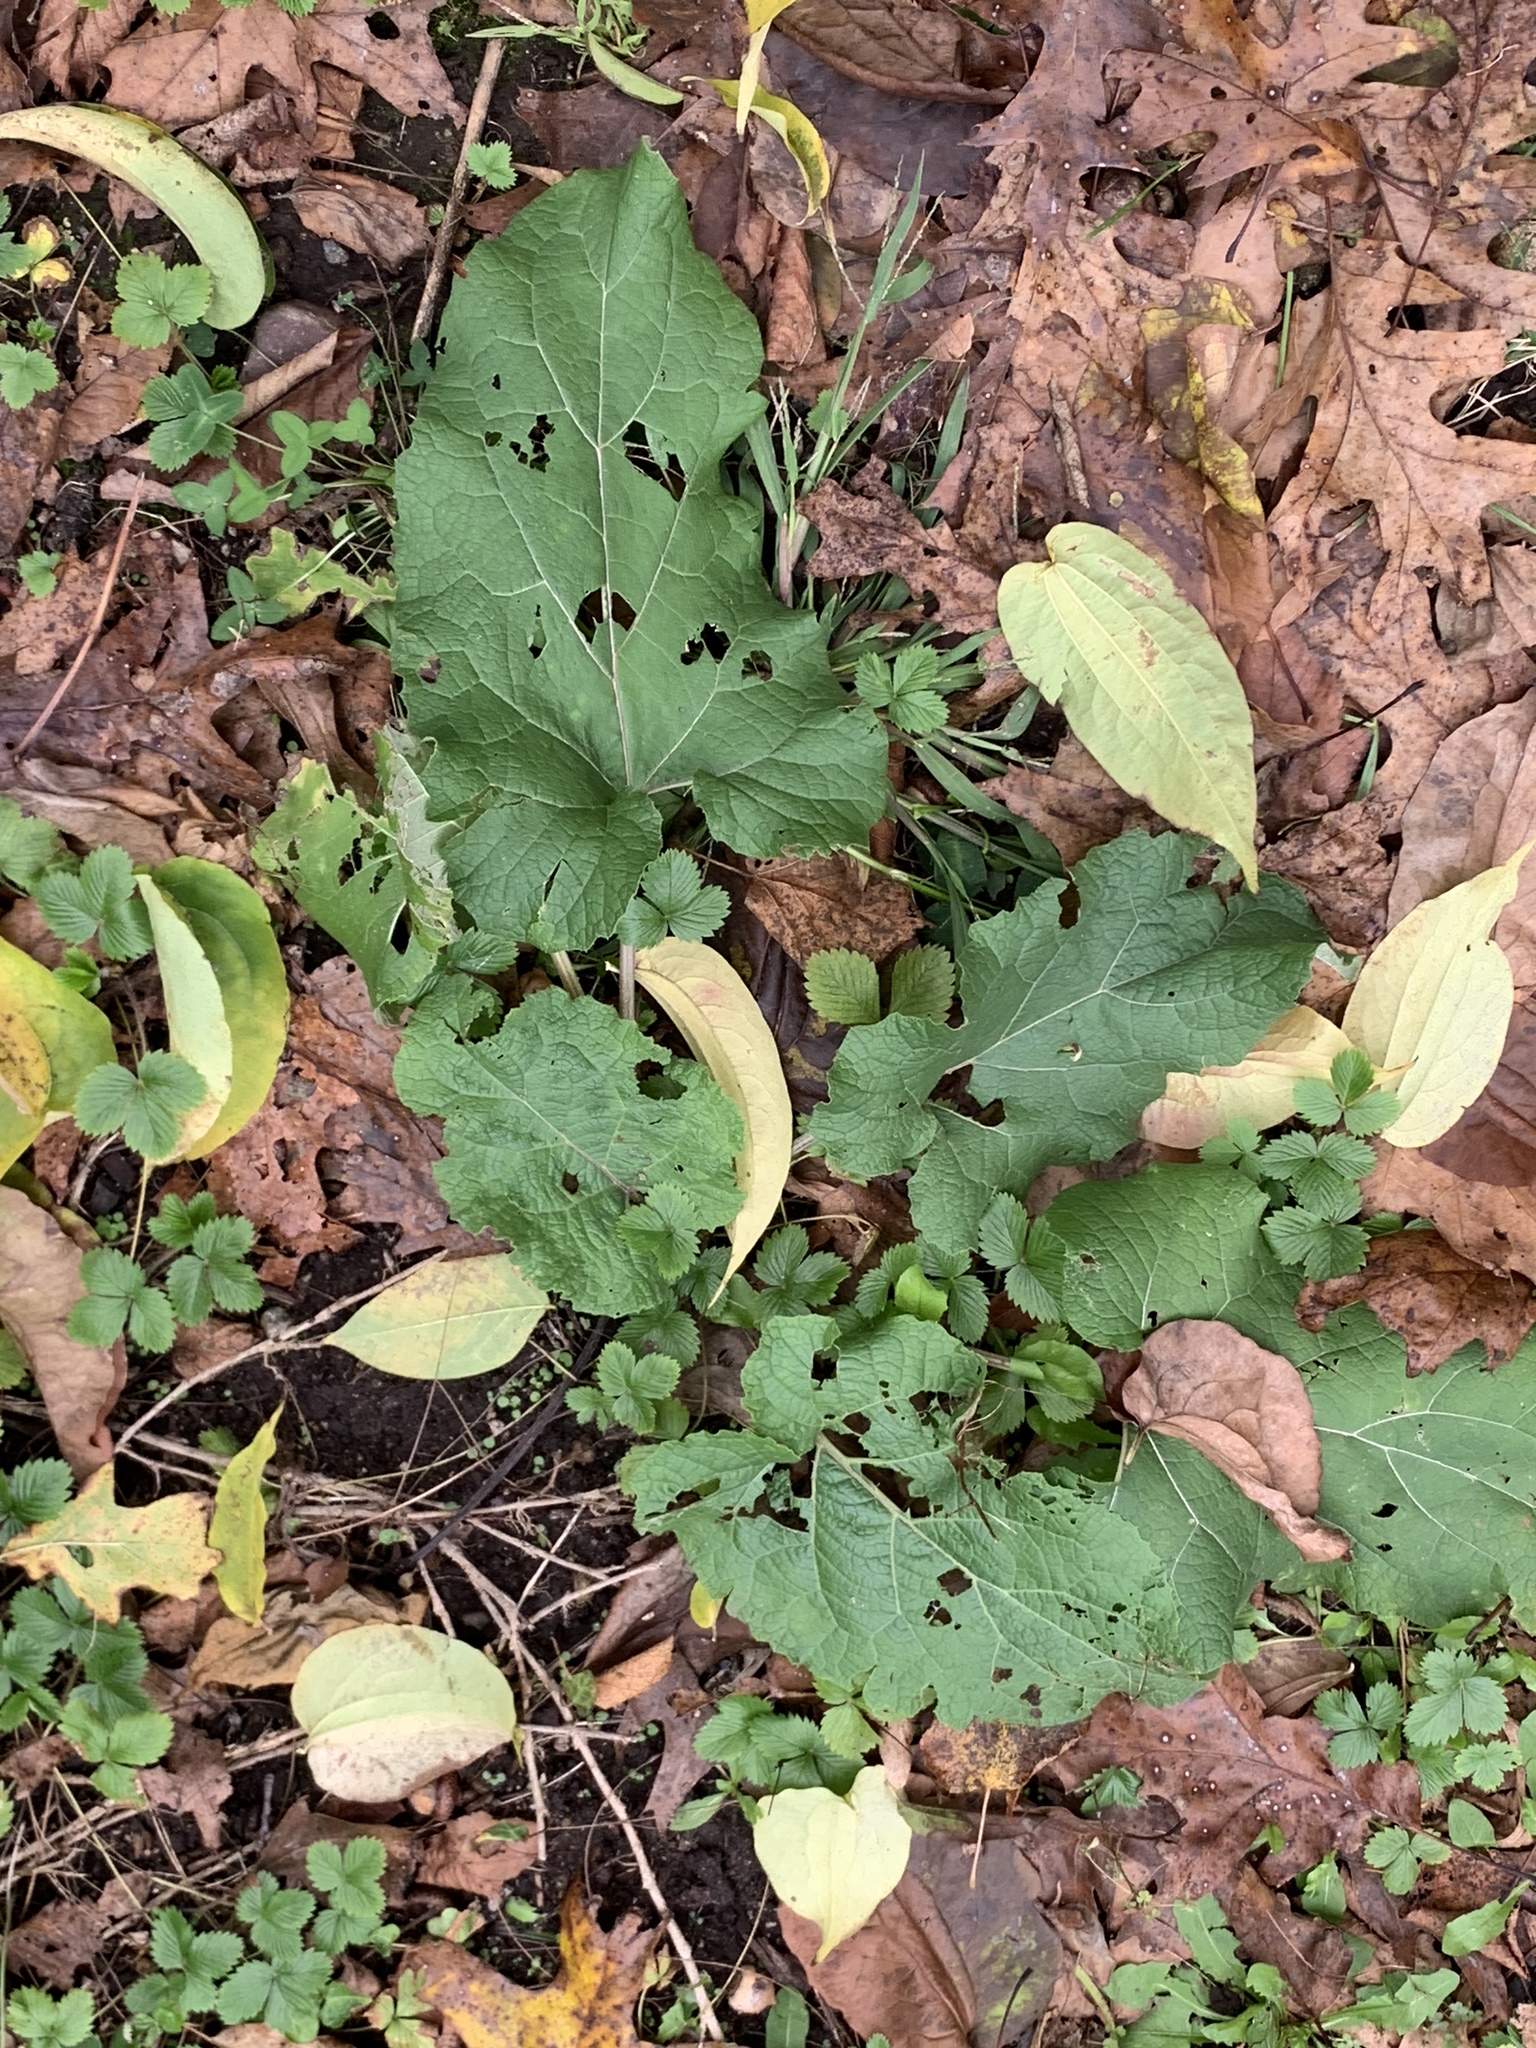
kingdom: Plantae
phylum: Tracheophyta
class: Magnoliopsida
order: Asterales
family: Asteraceae
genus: Arctium
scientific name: Arctium
